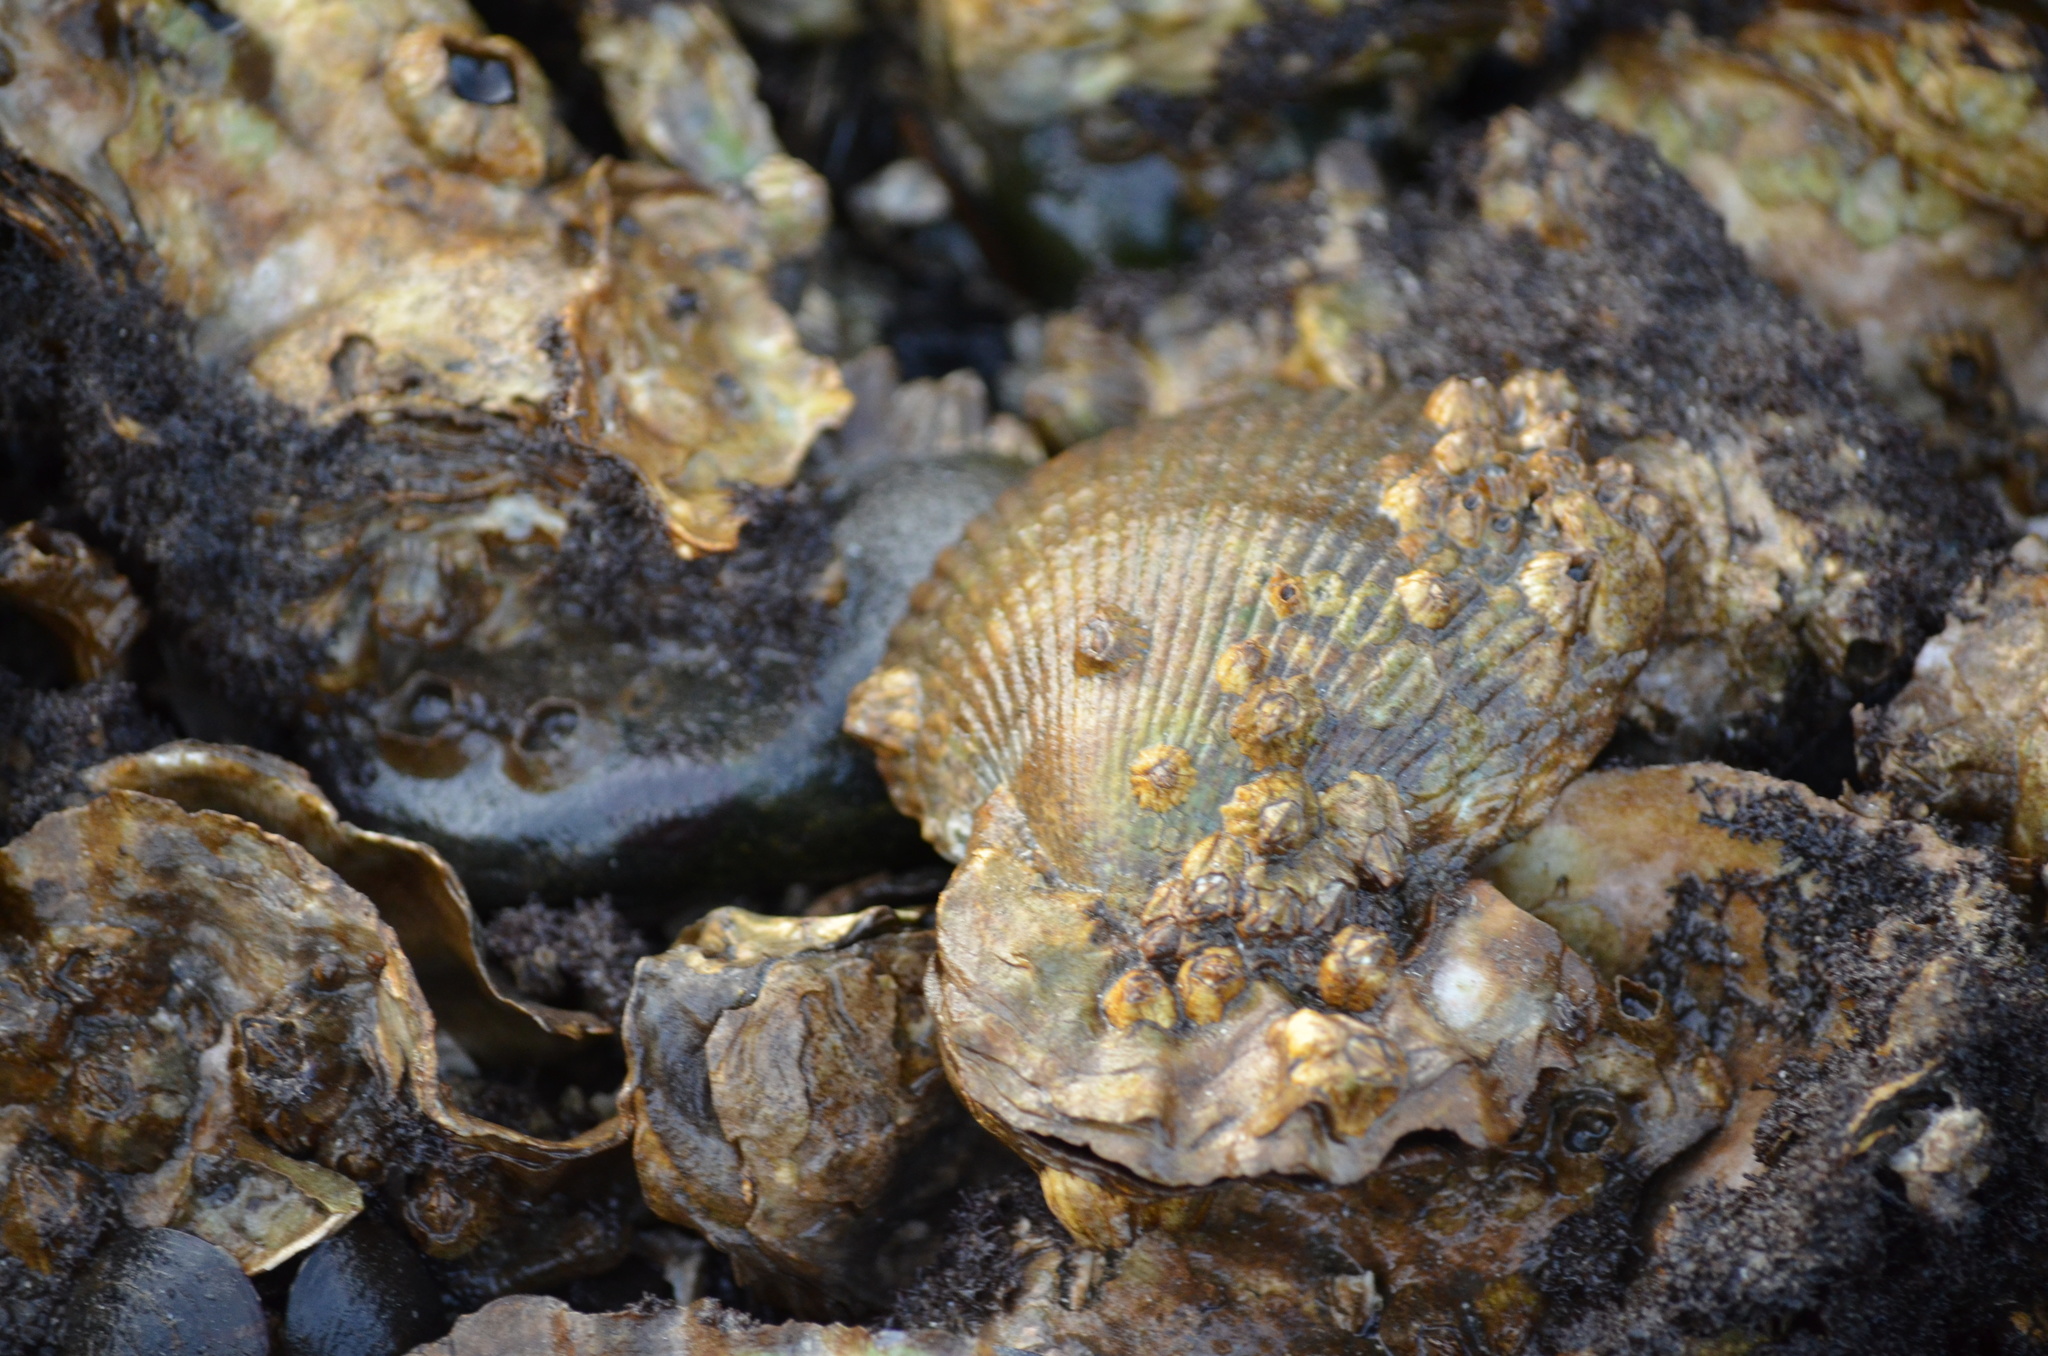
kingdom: Animalia
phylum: Mollusca
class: Bivalvia
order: Cardiida
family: Cardiidae
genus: Clinocardium
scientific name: Clinocardium nuttallii
